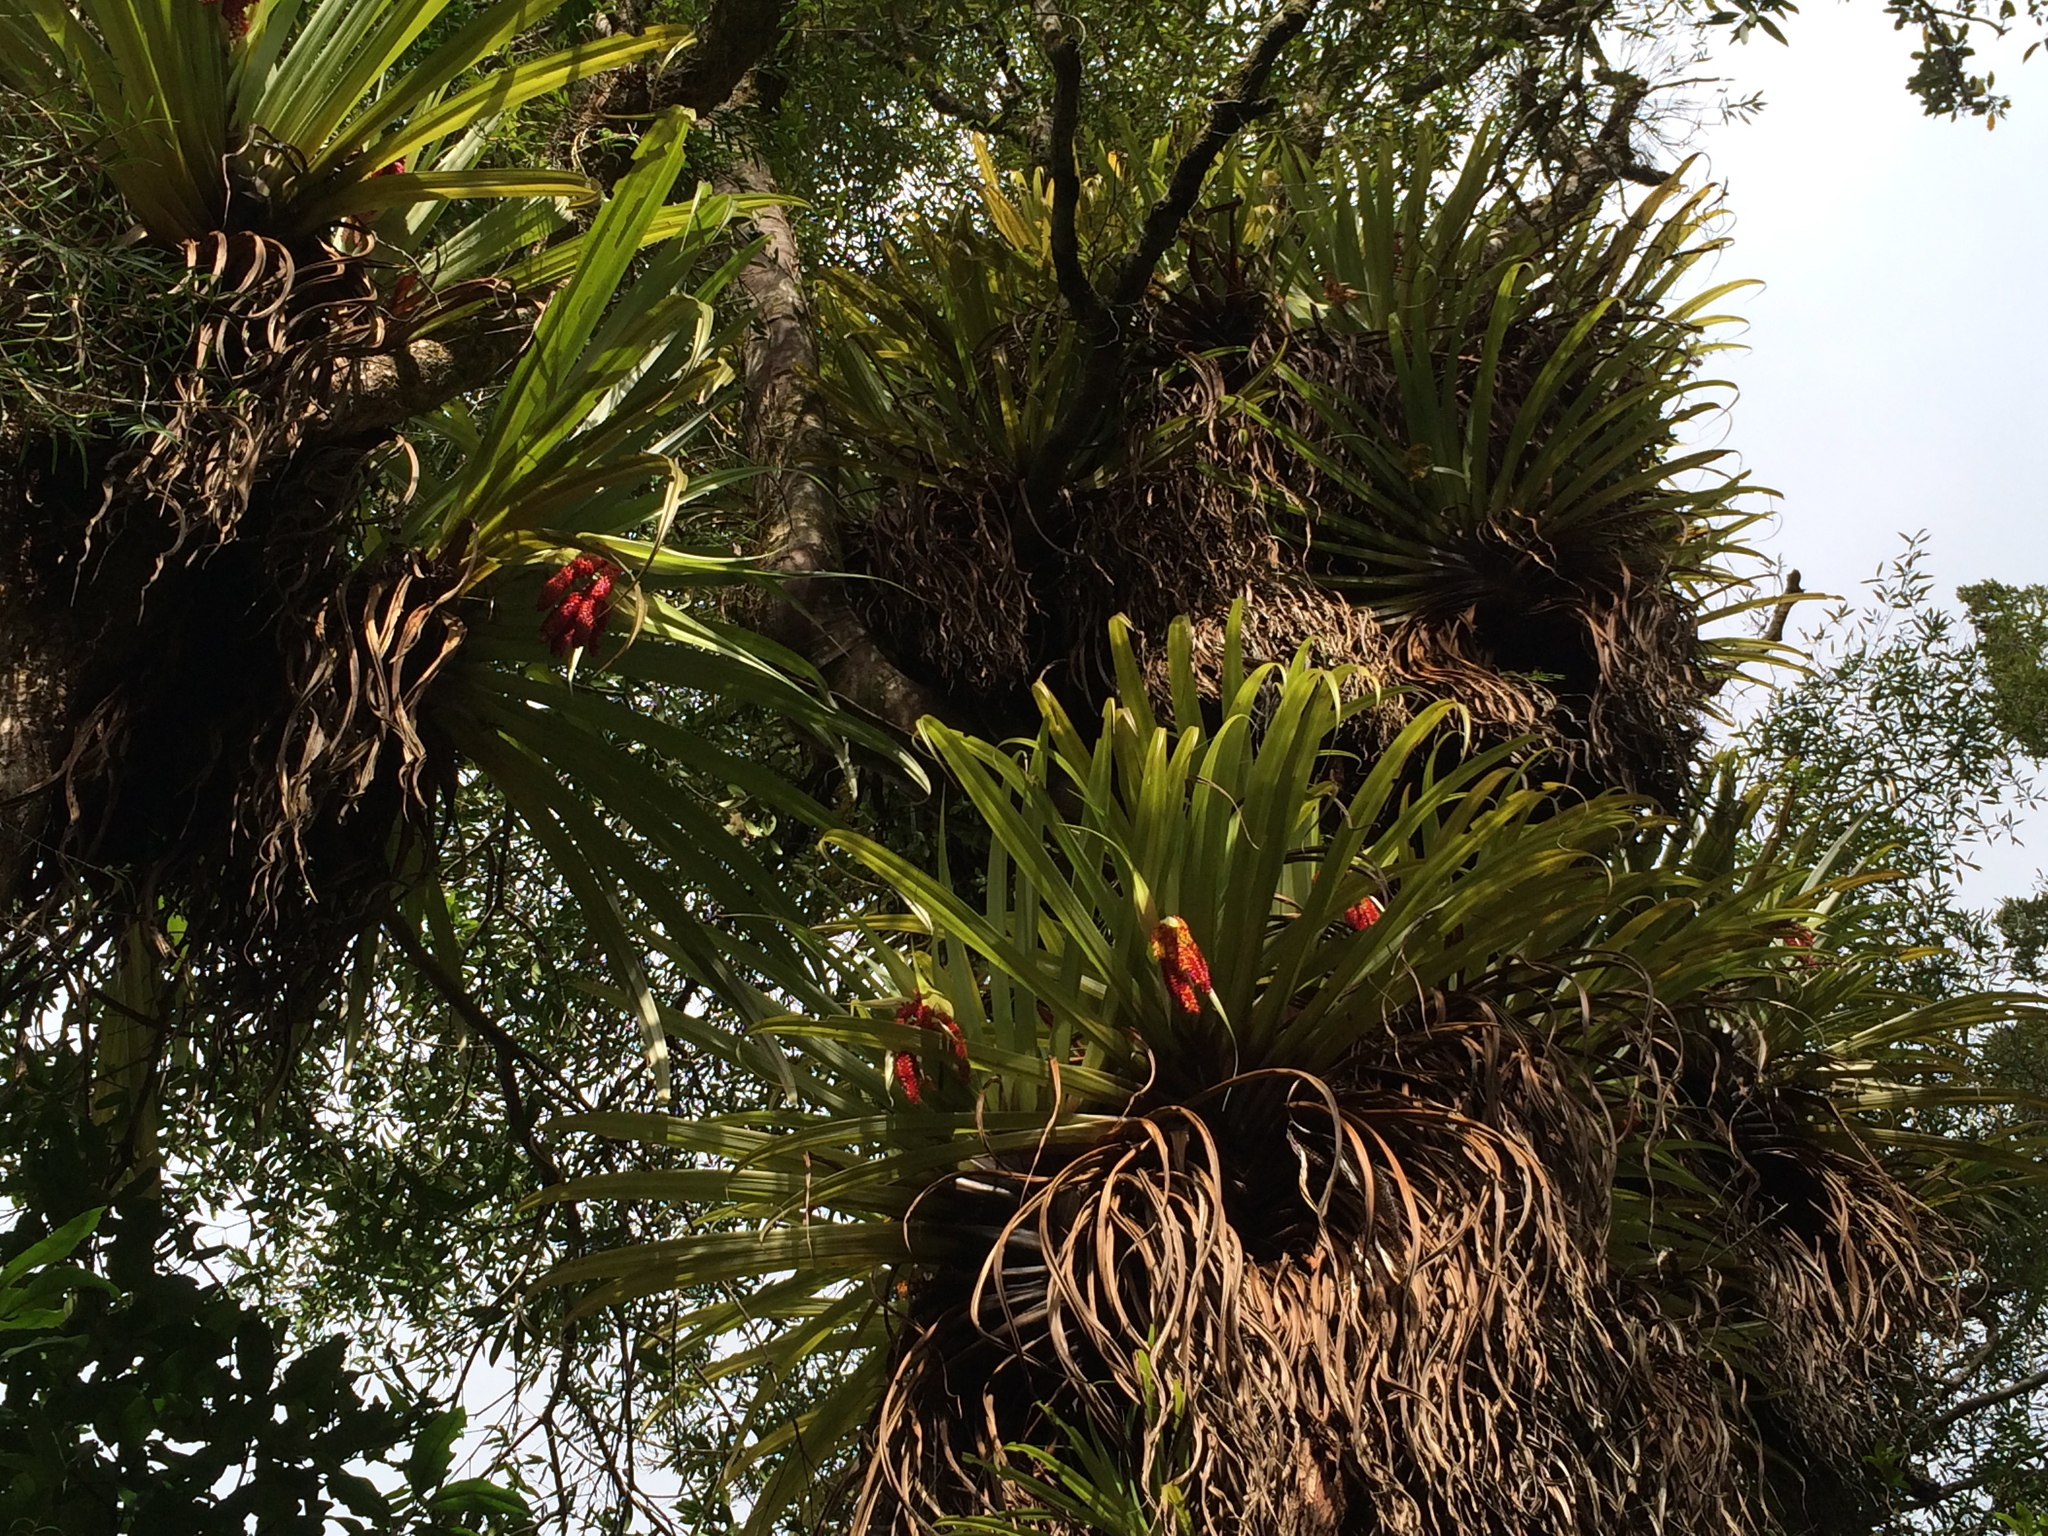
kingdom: Plantae
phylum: Tracheophyta
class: Liliopsida
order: Asparagales
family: Asteliaceae
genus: Astelia
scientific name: Astelia hastata
